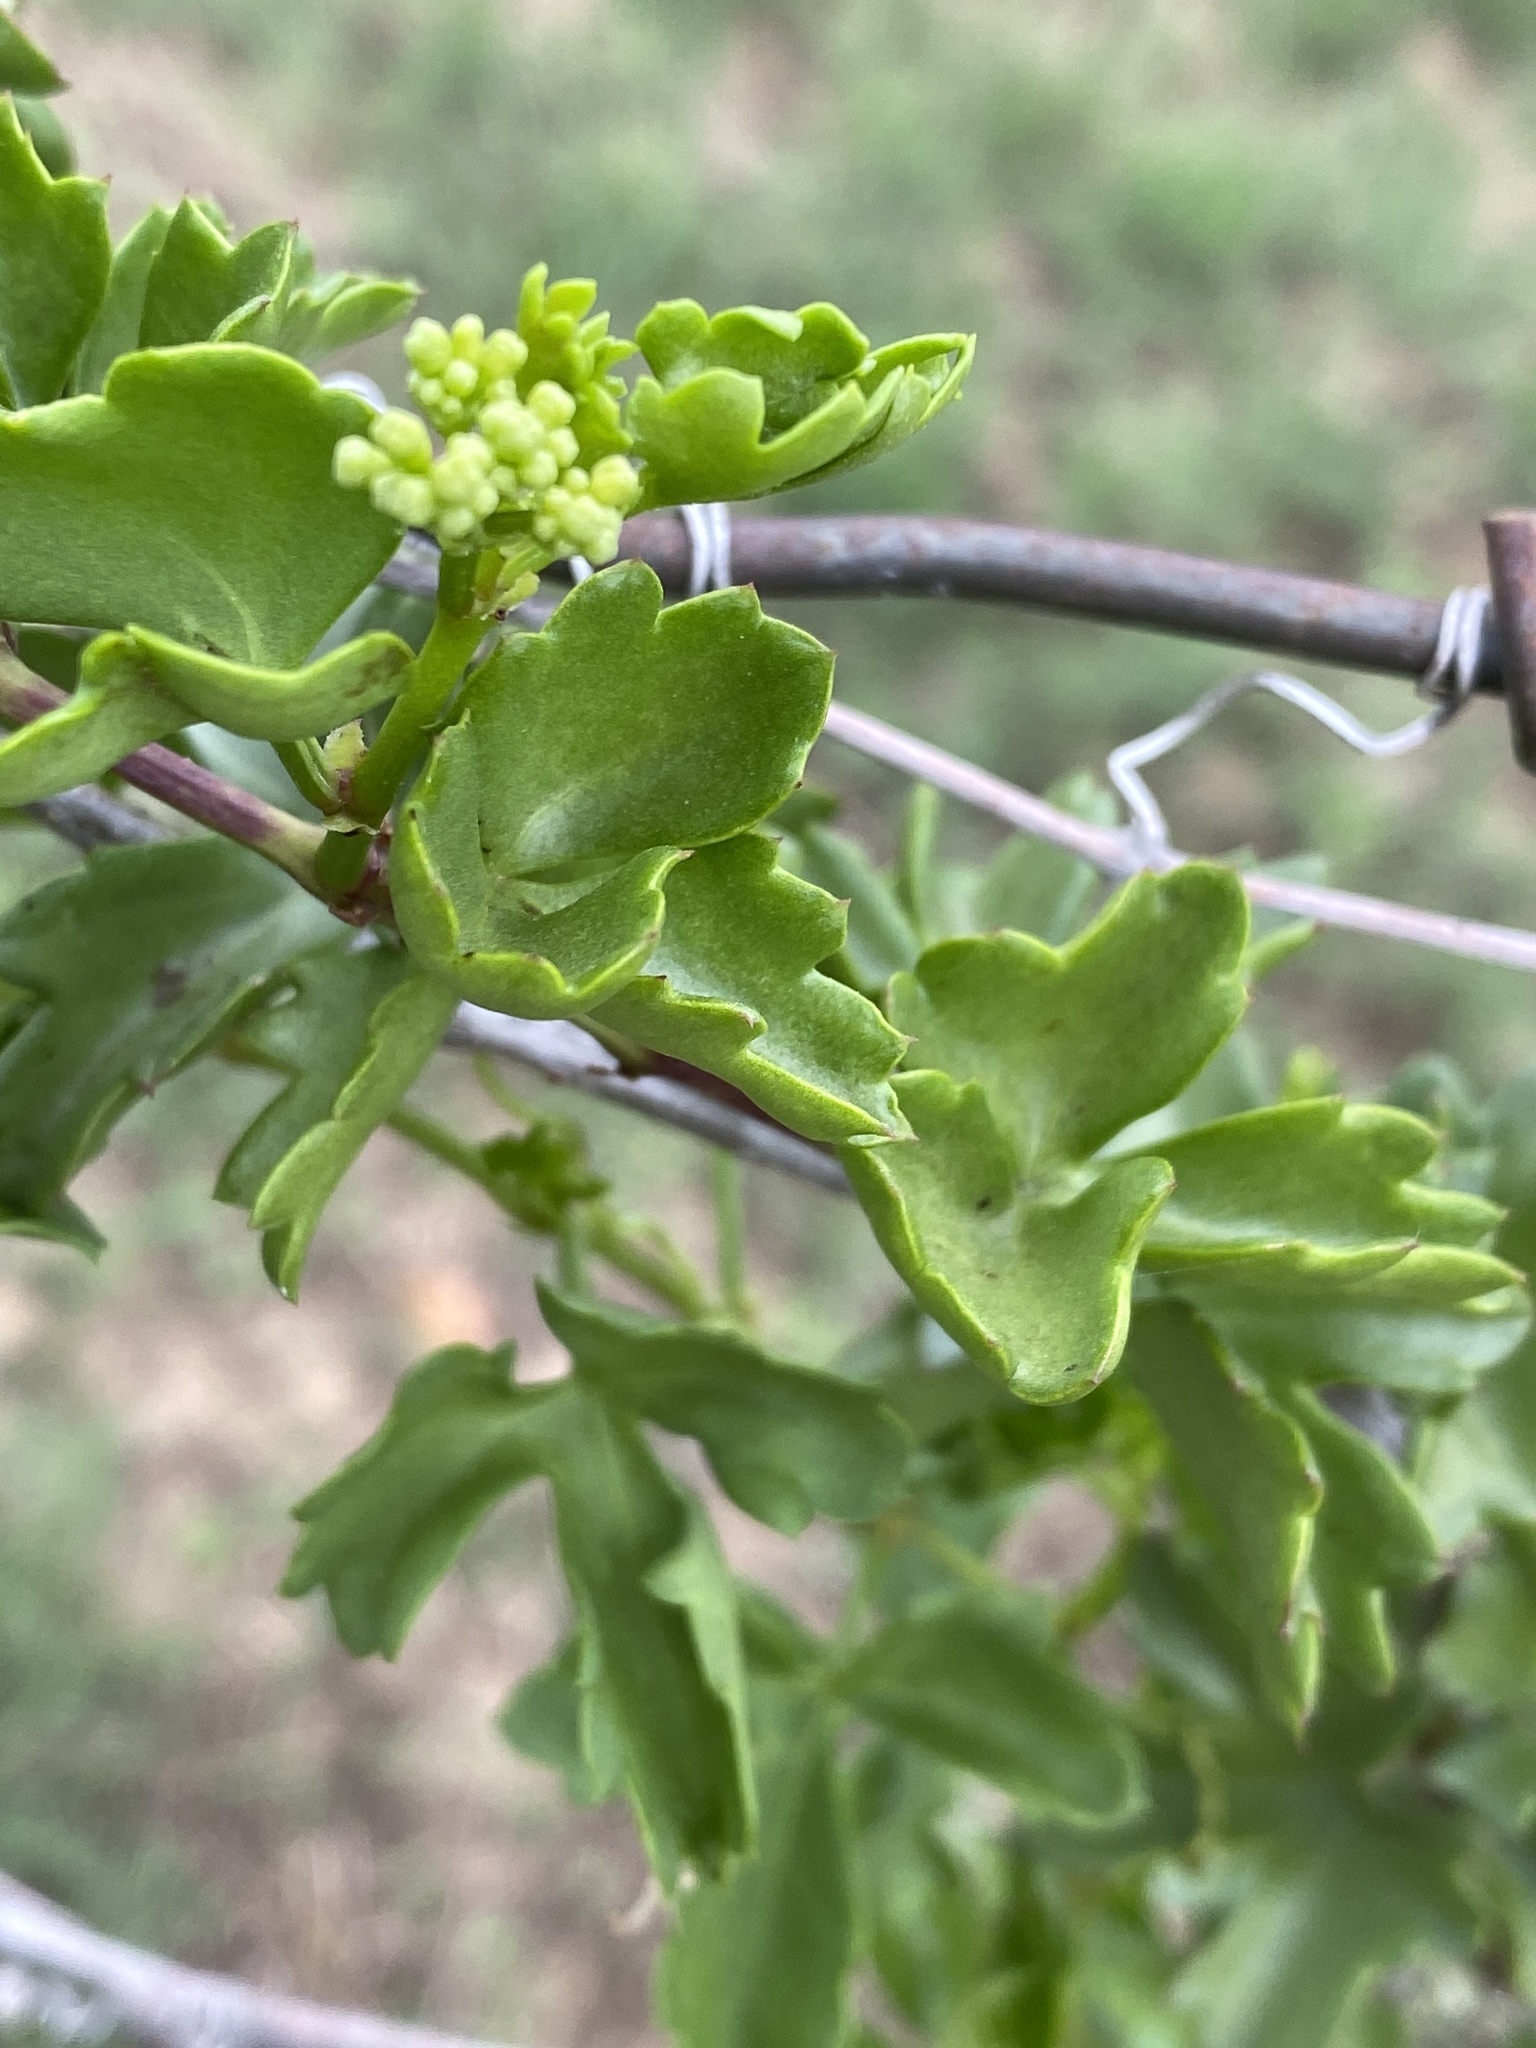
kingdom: Plantae
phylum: Tracheophyta
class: Magnoliopsida
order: Vitales
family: Vitaceae
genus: Cissus
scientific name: Cissus trifoliata
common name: Vine-sorrel
